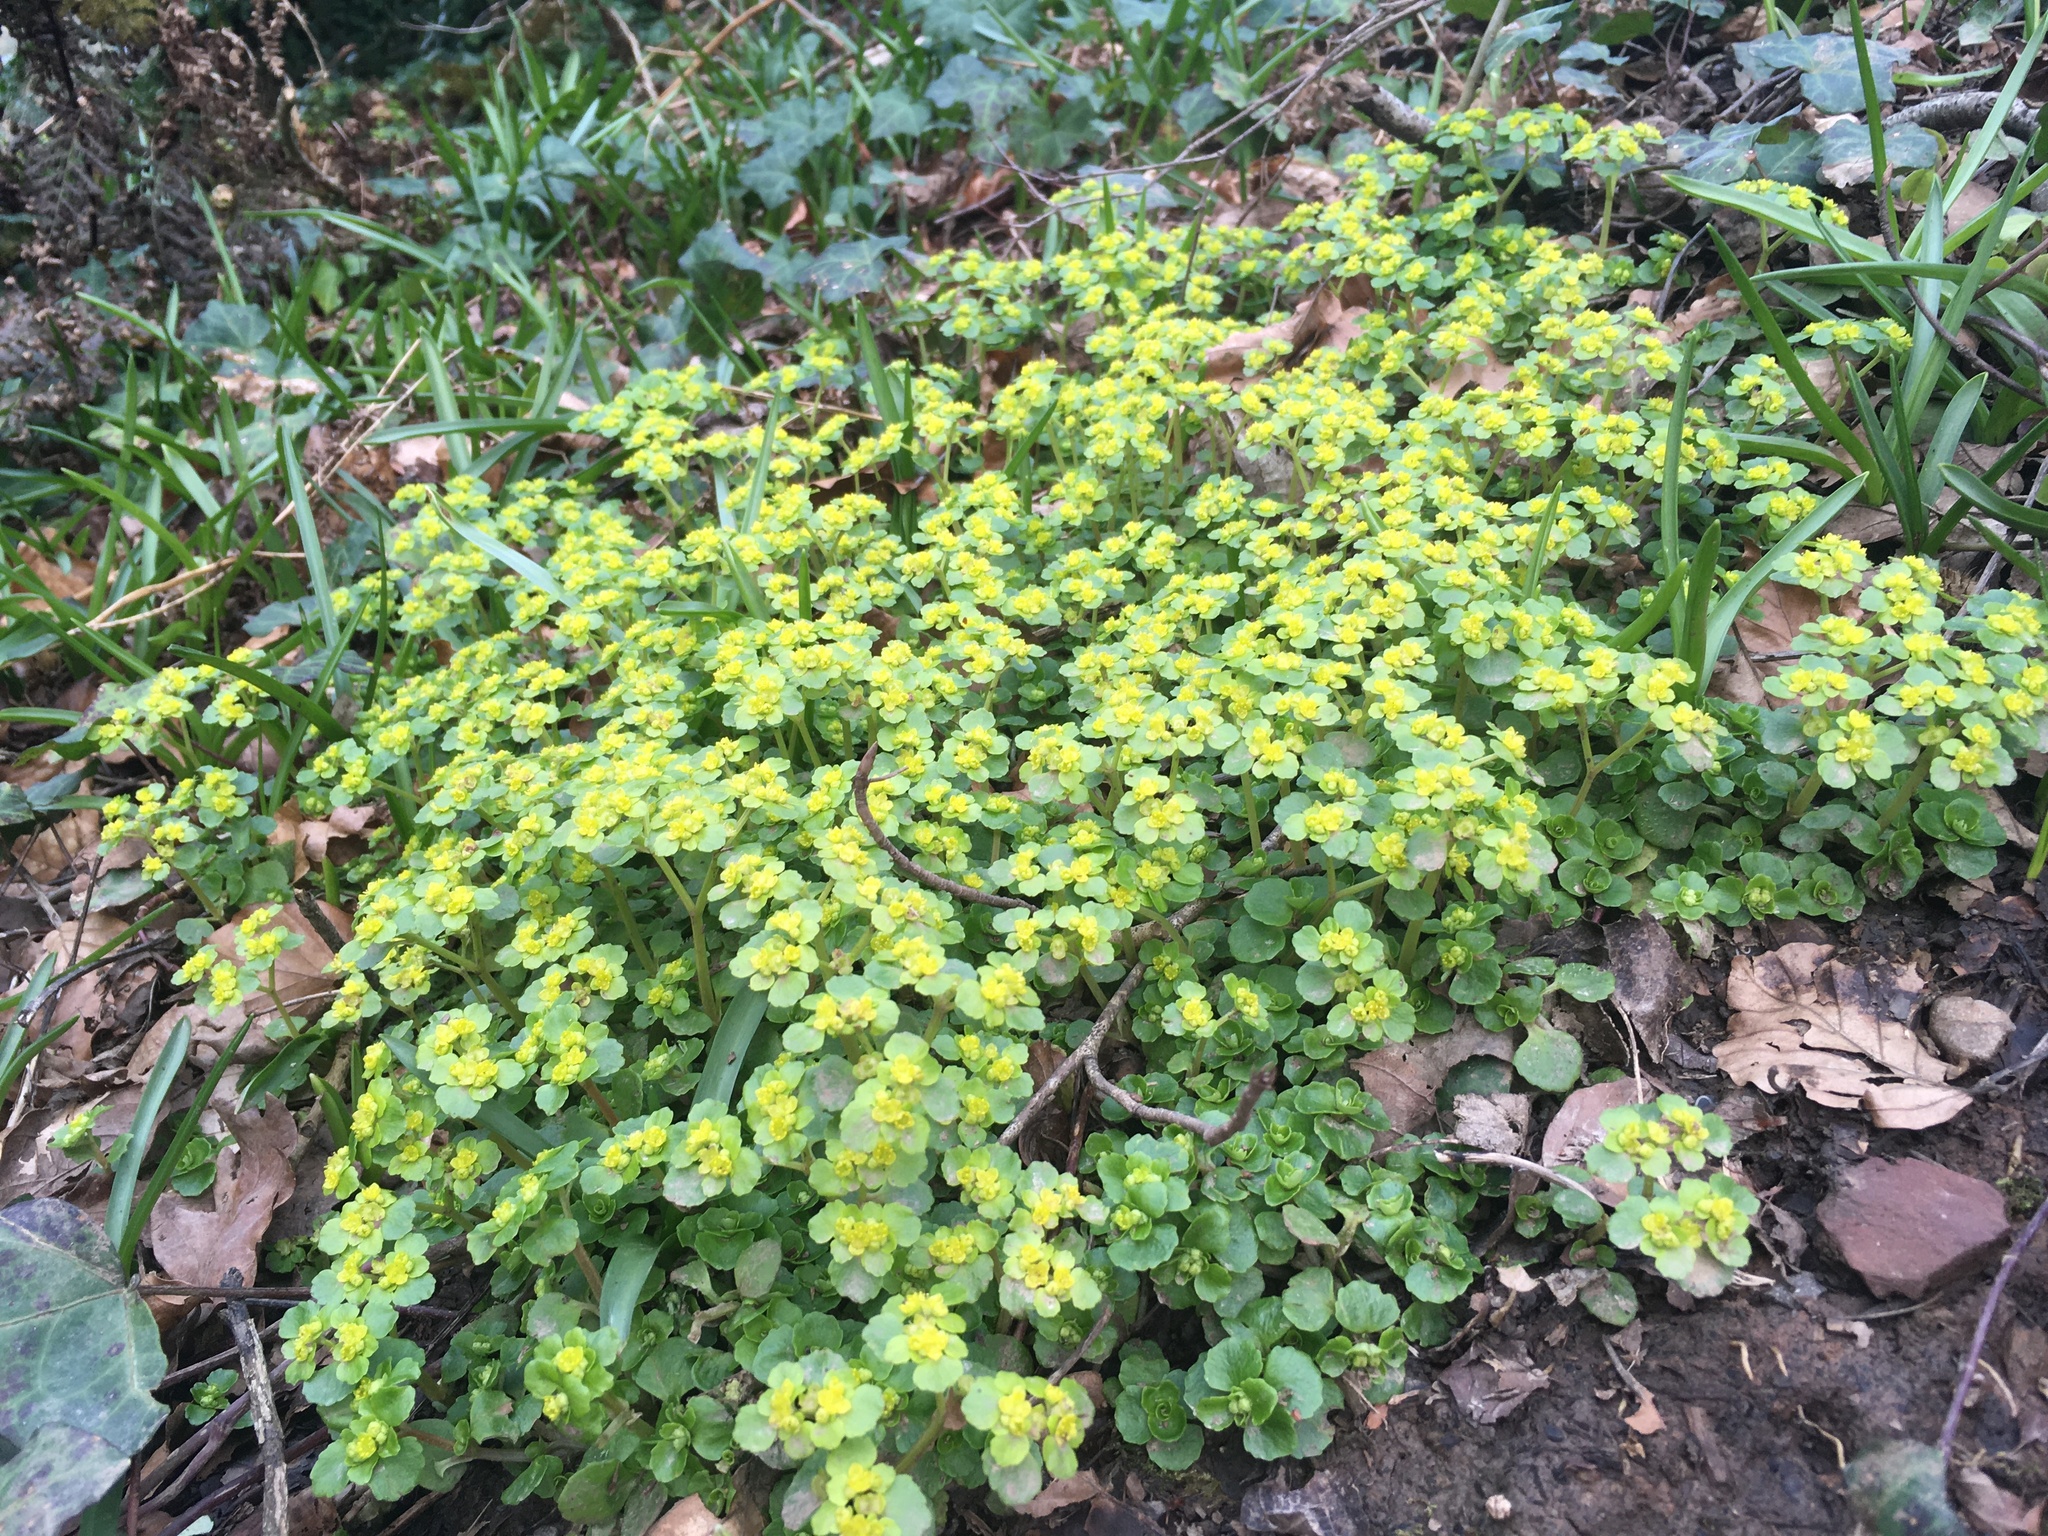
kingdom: Plantae
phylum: Tracheophyta
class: Magnoliopsida
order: Saxifragales
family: Saxifragaceae
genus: Chrysosplenium
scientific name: Chrysosplenium oppositifolium
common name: Opposite-leaved golden-saxifrage
